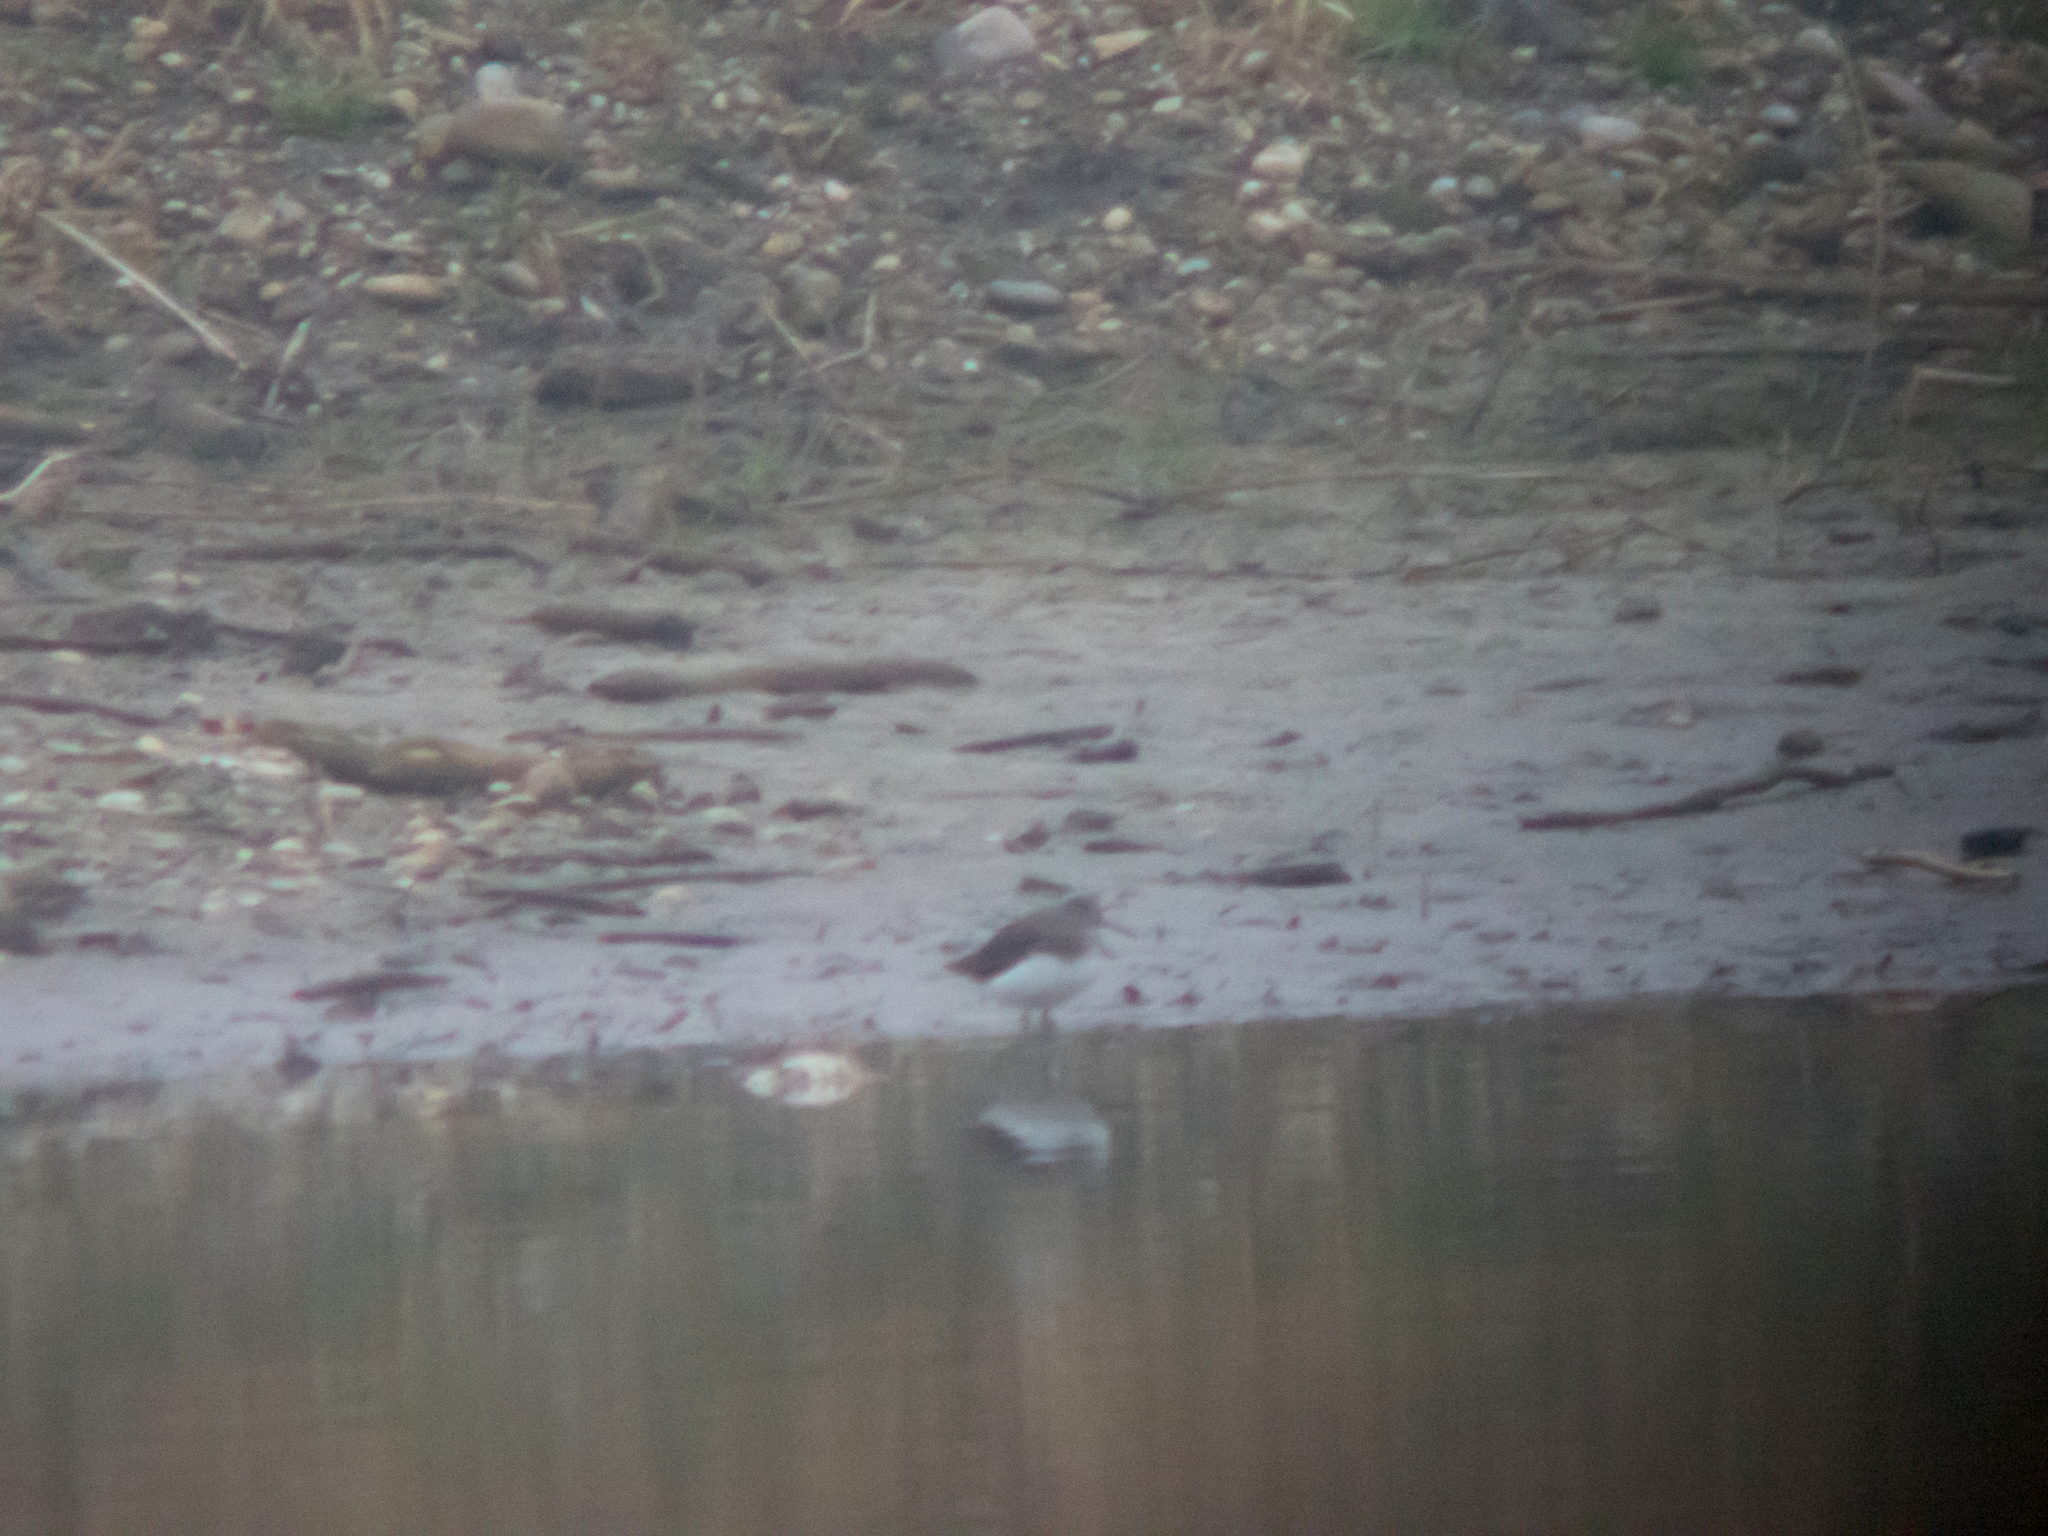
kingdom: Animalia
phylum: Chordata
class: Aves
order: Charadriiformes
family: Scolopacidae
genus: Tringa
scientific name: Tringa ochropus
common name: Green sandpiper
